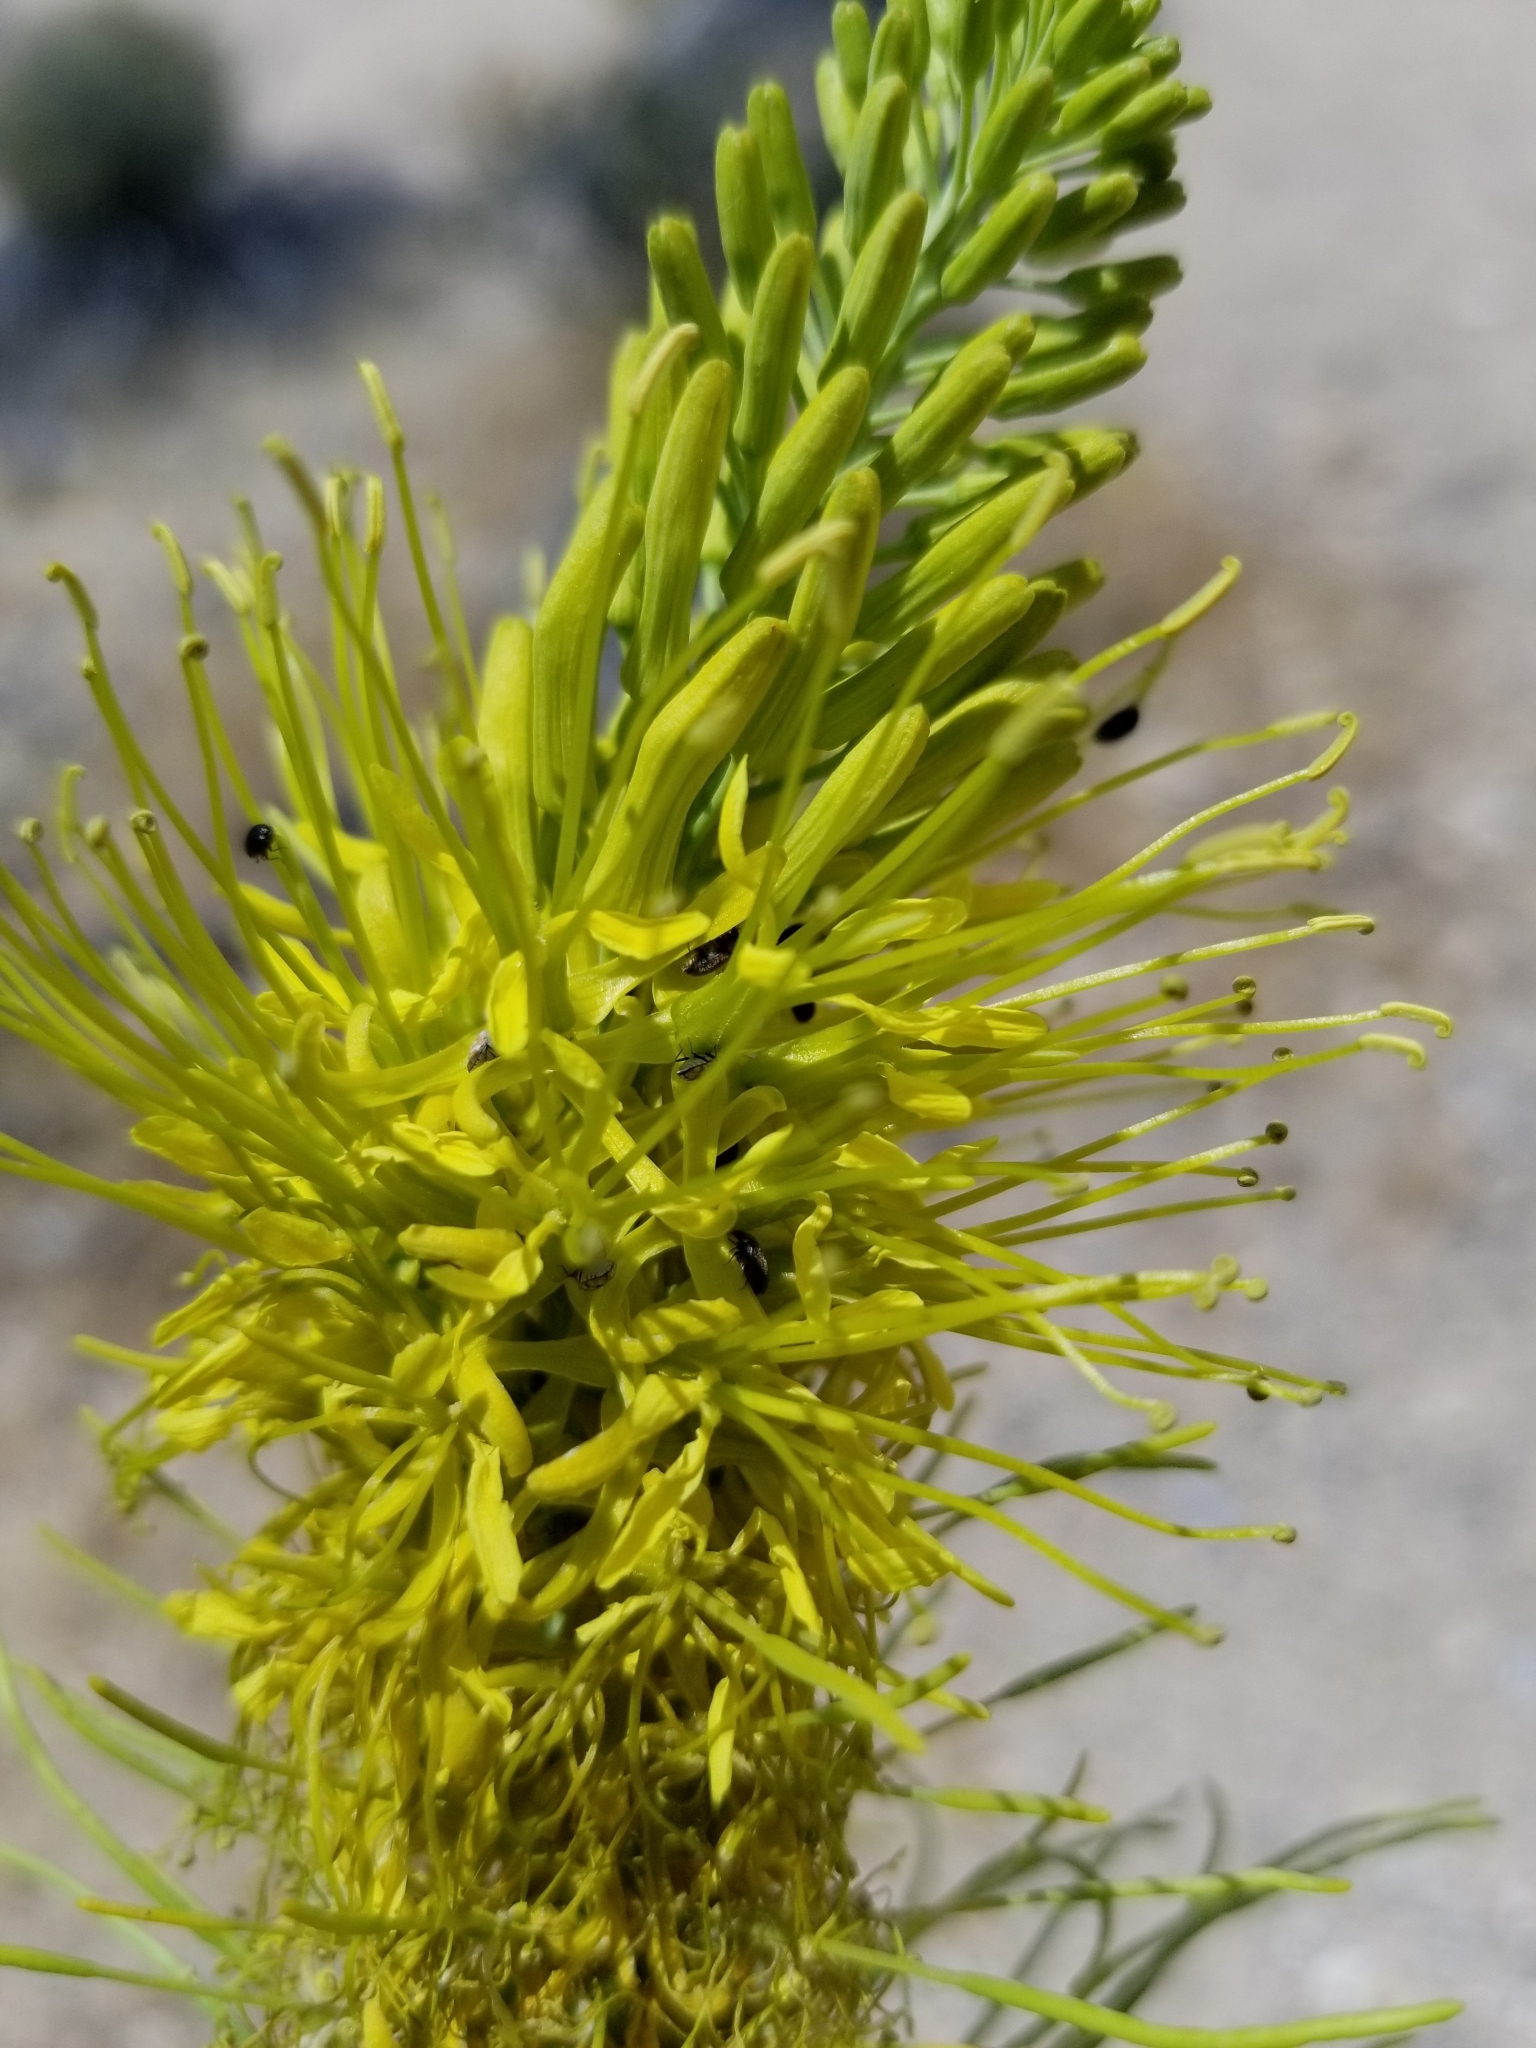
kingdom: Plantae
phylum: Tracheophyta
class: Magnoliopsida
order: Brassicales
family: Brassicaceae
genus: Stanleya
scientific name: Stanleya pinnata
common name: Prince's-plume
